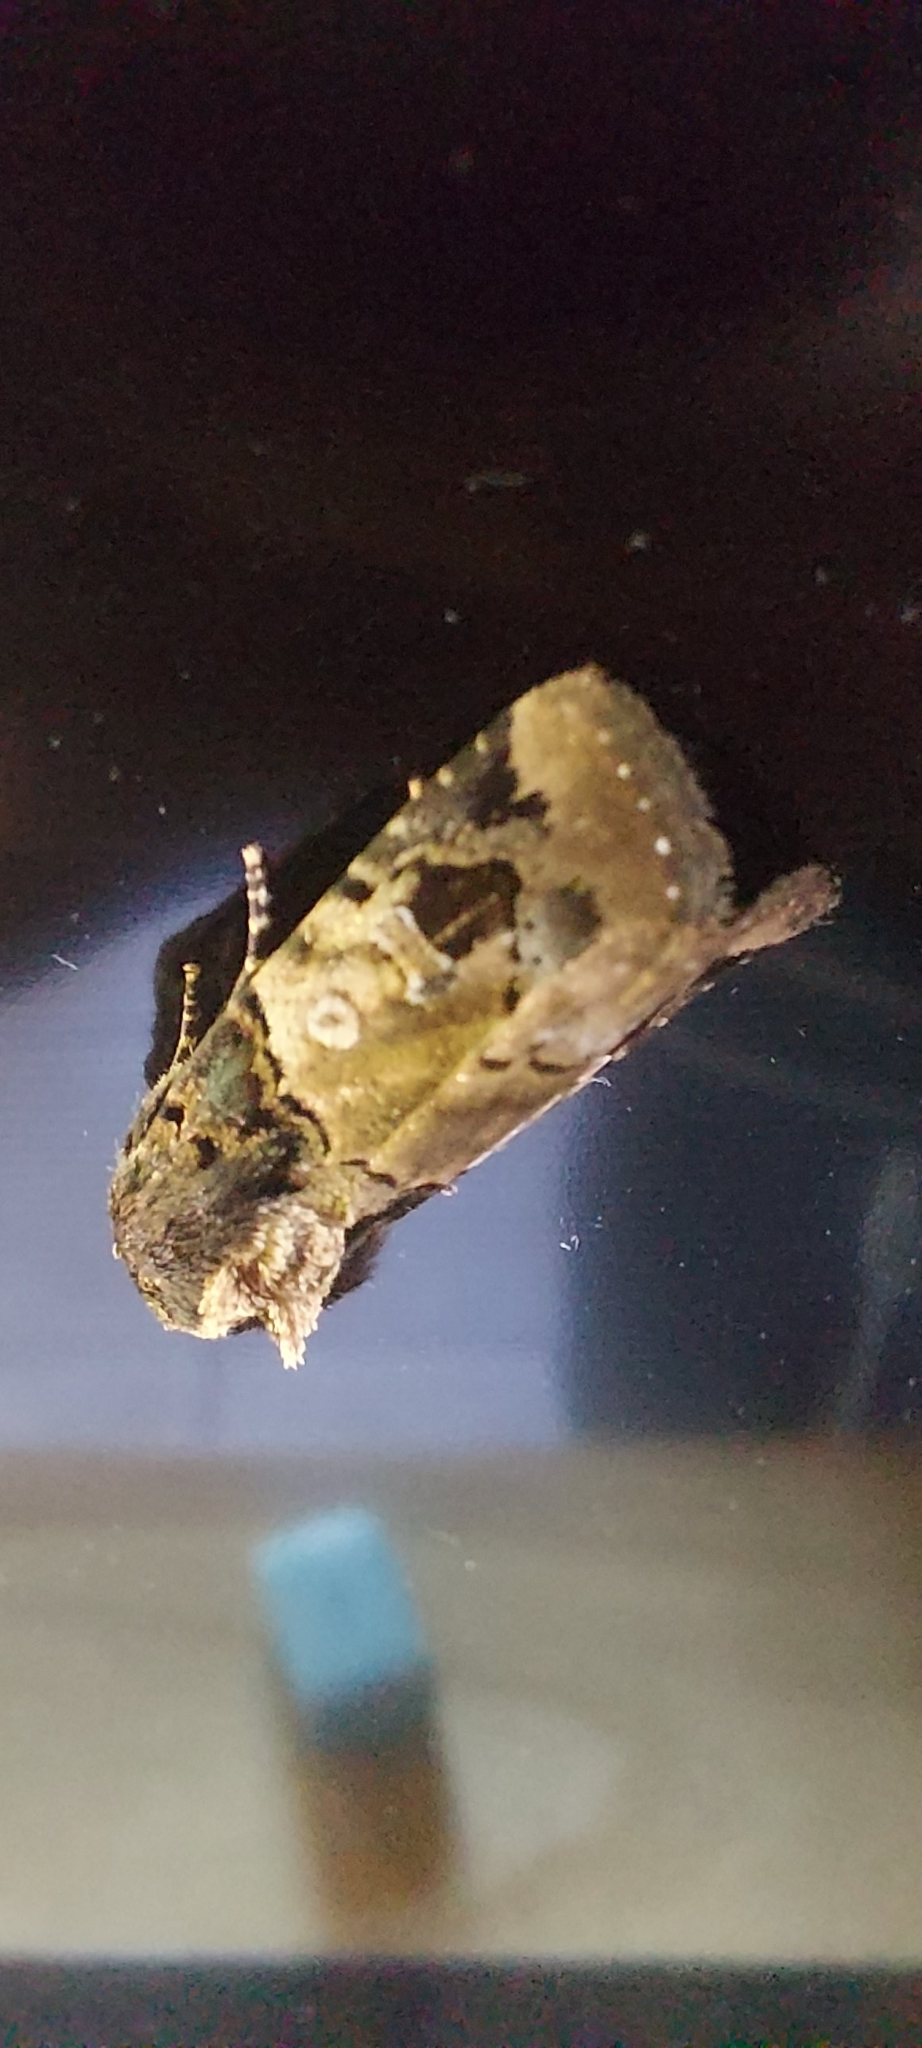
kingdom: Animalia
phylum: Arthropoda
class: Insecta
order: Lepidoptera
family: Noctuidae
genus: Hampsonodes
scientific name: Hampsonodes confisa
